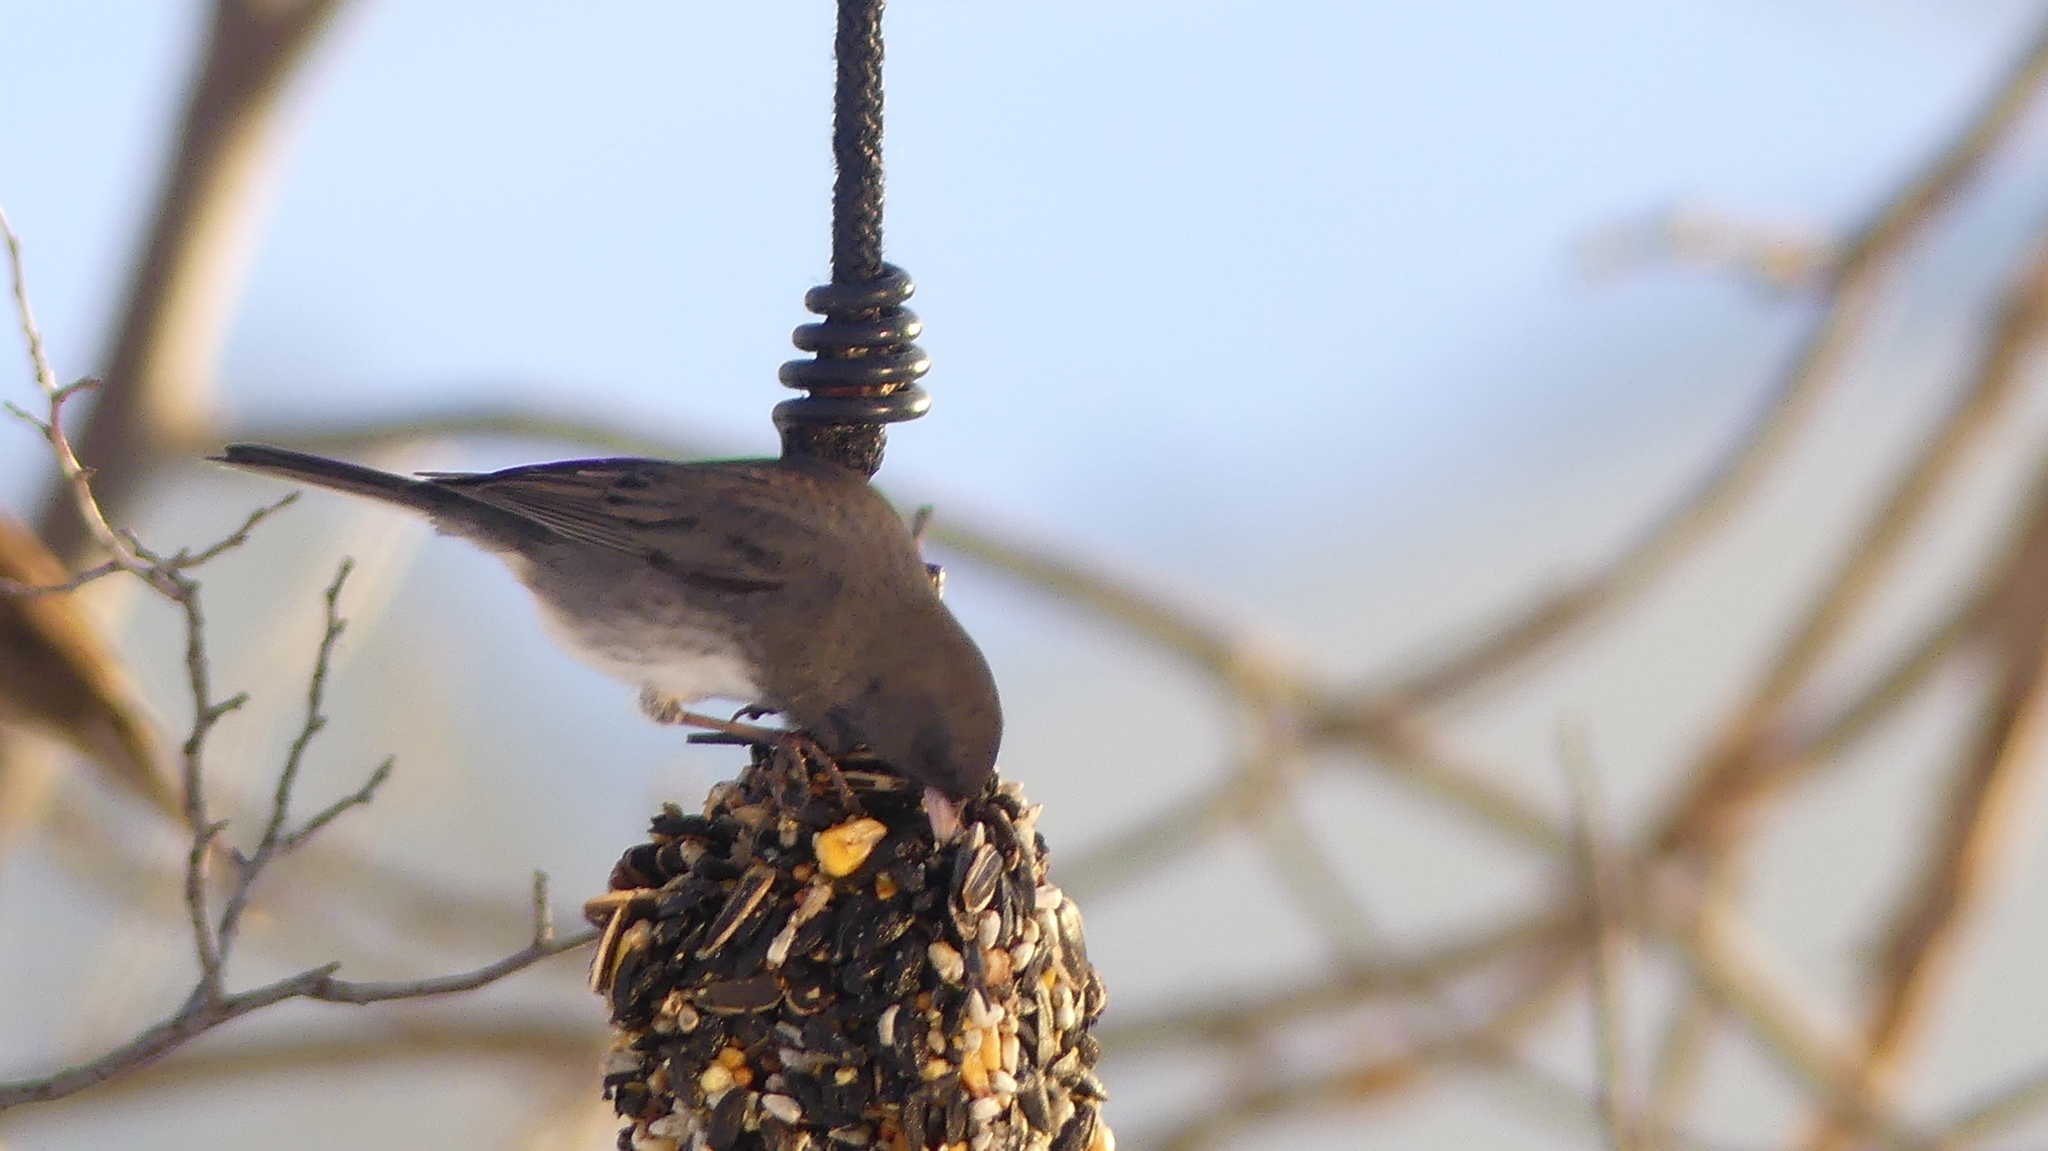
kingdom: Animalia
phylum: Chordata
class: Aves
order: Passeriformes
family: Passerellidae
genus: Junco
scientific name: Junco hyemalis
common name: Dark-eyed junco
